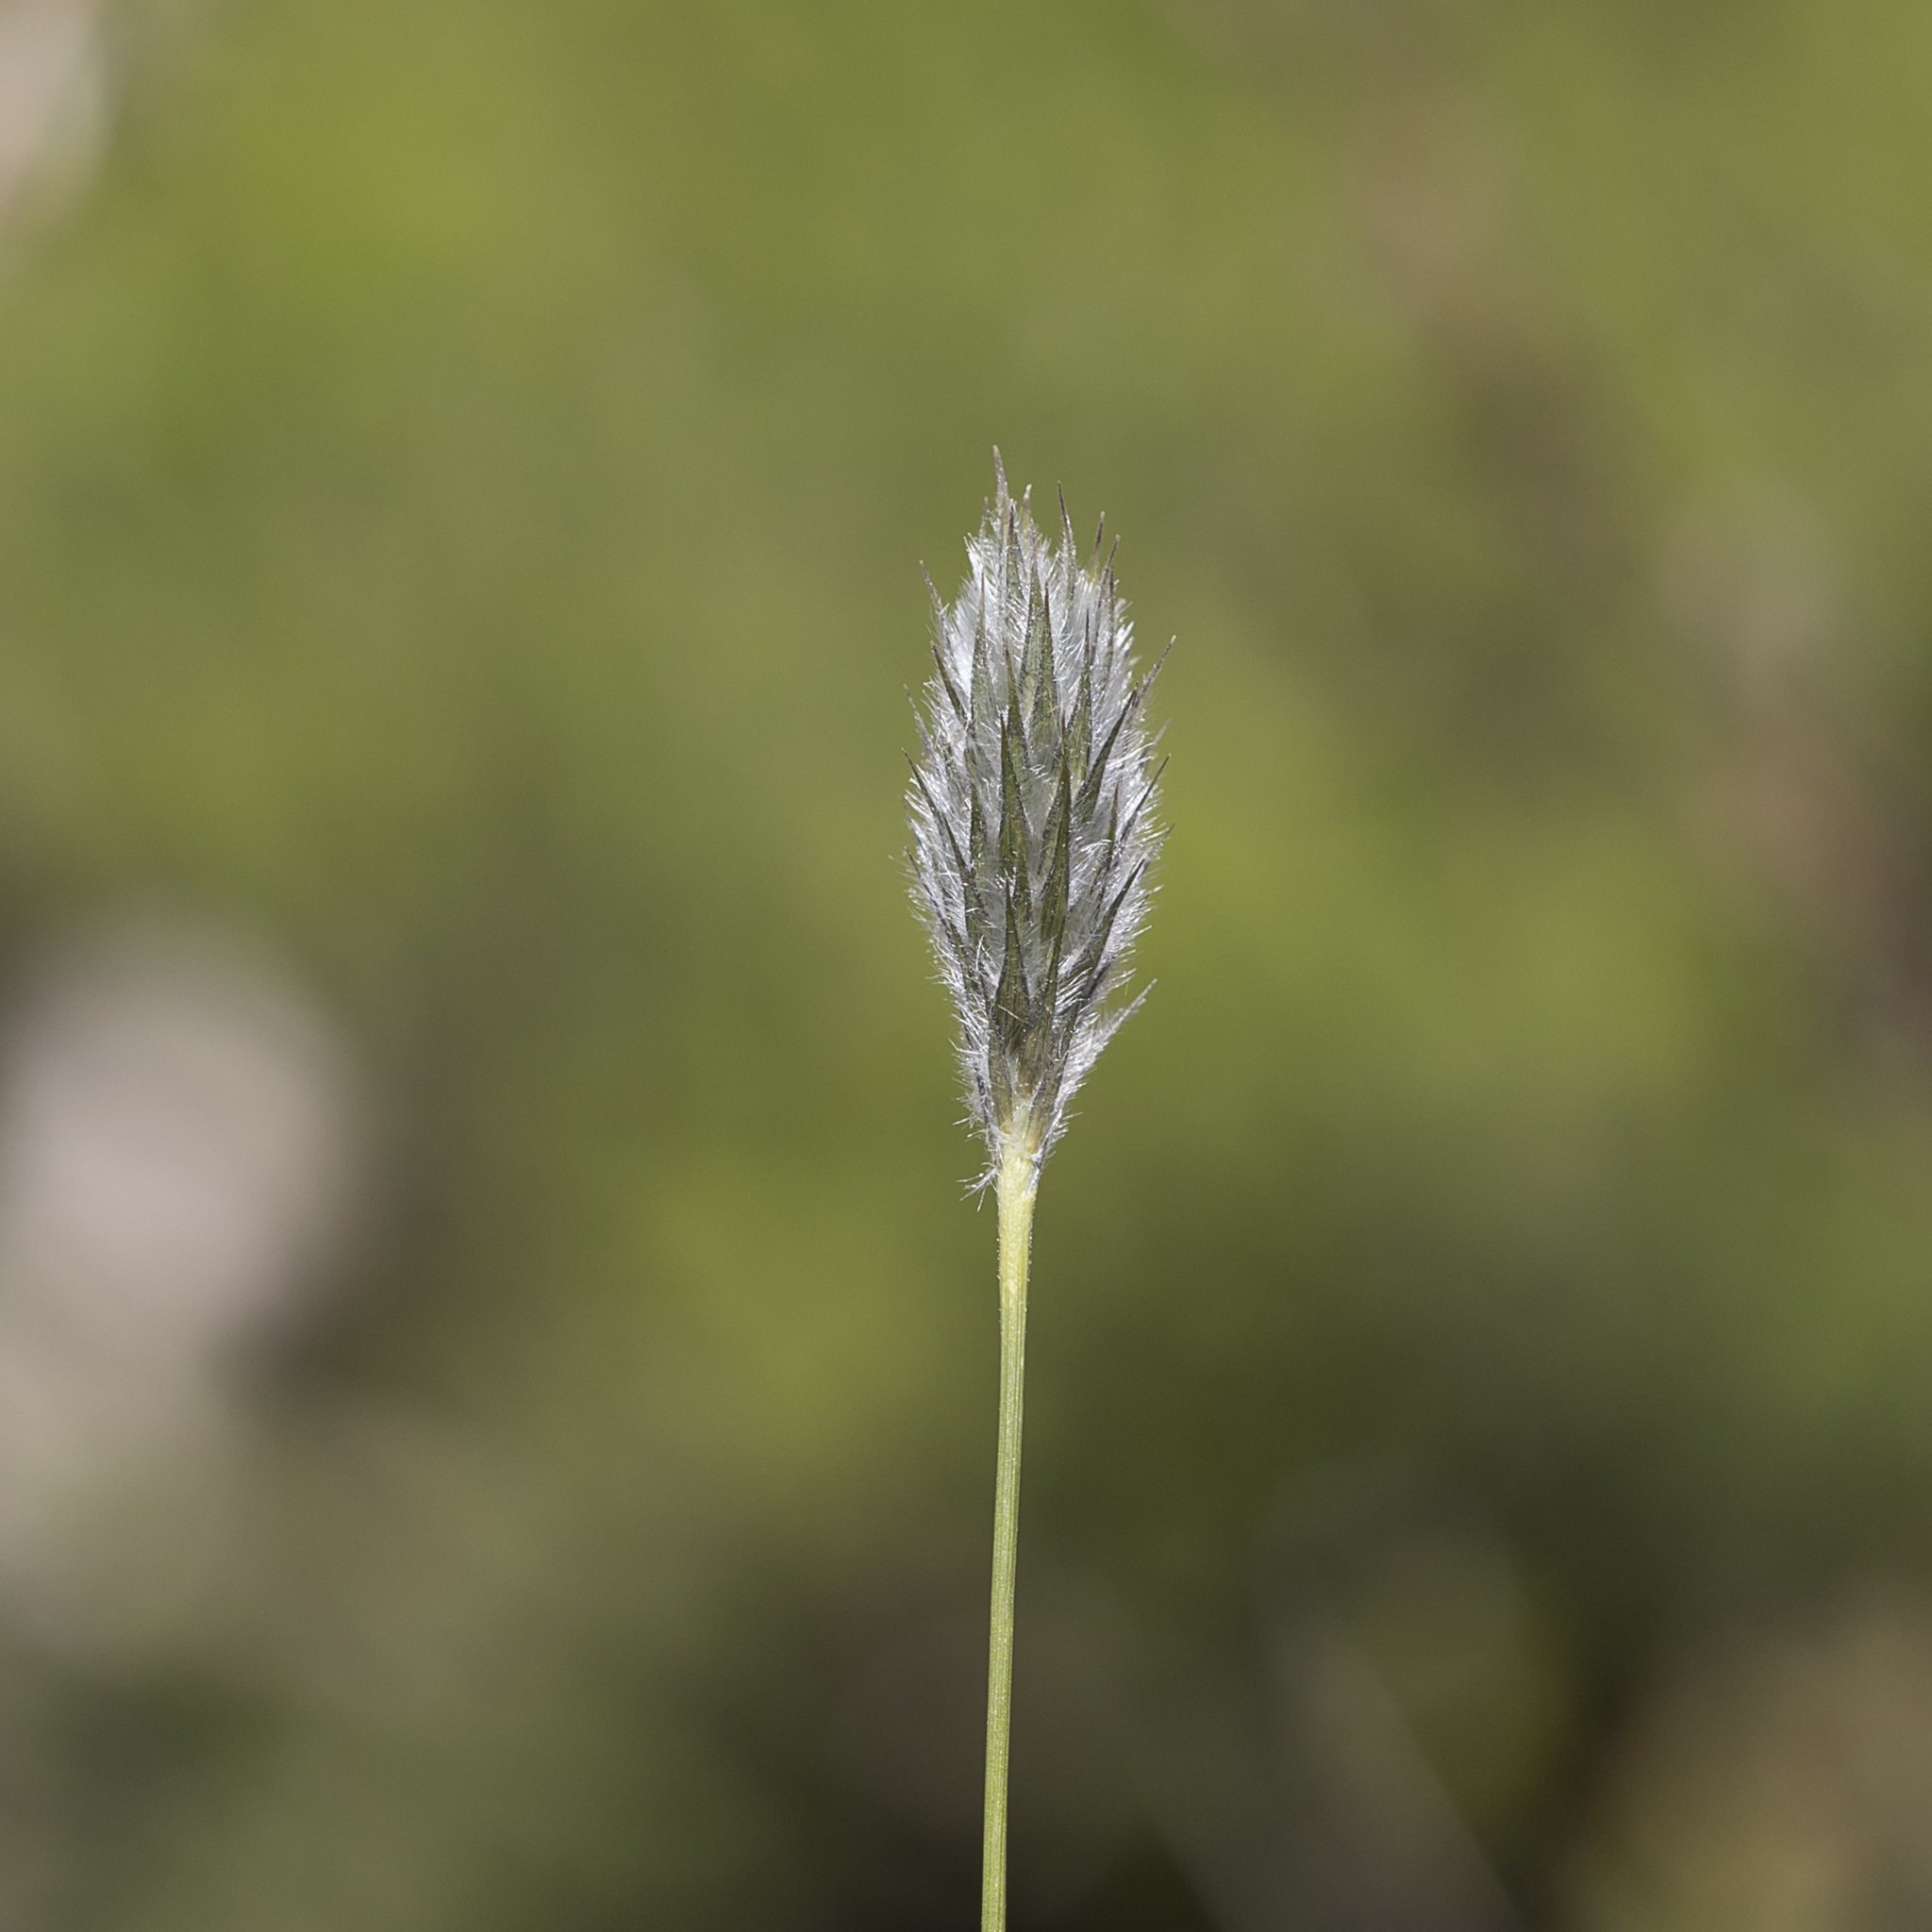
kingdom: Plantae
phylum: Tracheophyta
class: Liliopsida
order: Poales
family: Poaceae
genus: Neurachne
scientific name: Neurachne alopecuroidea
